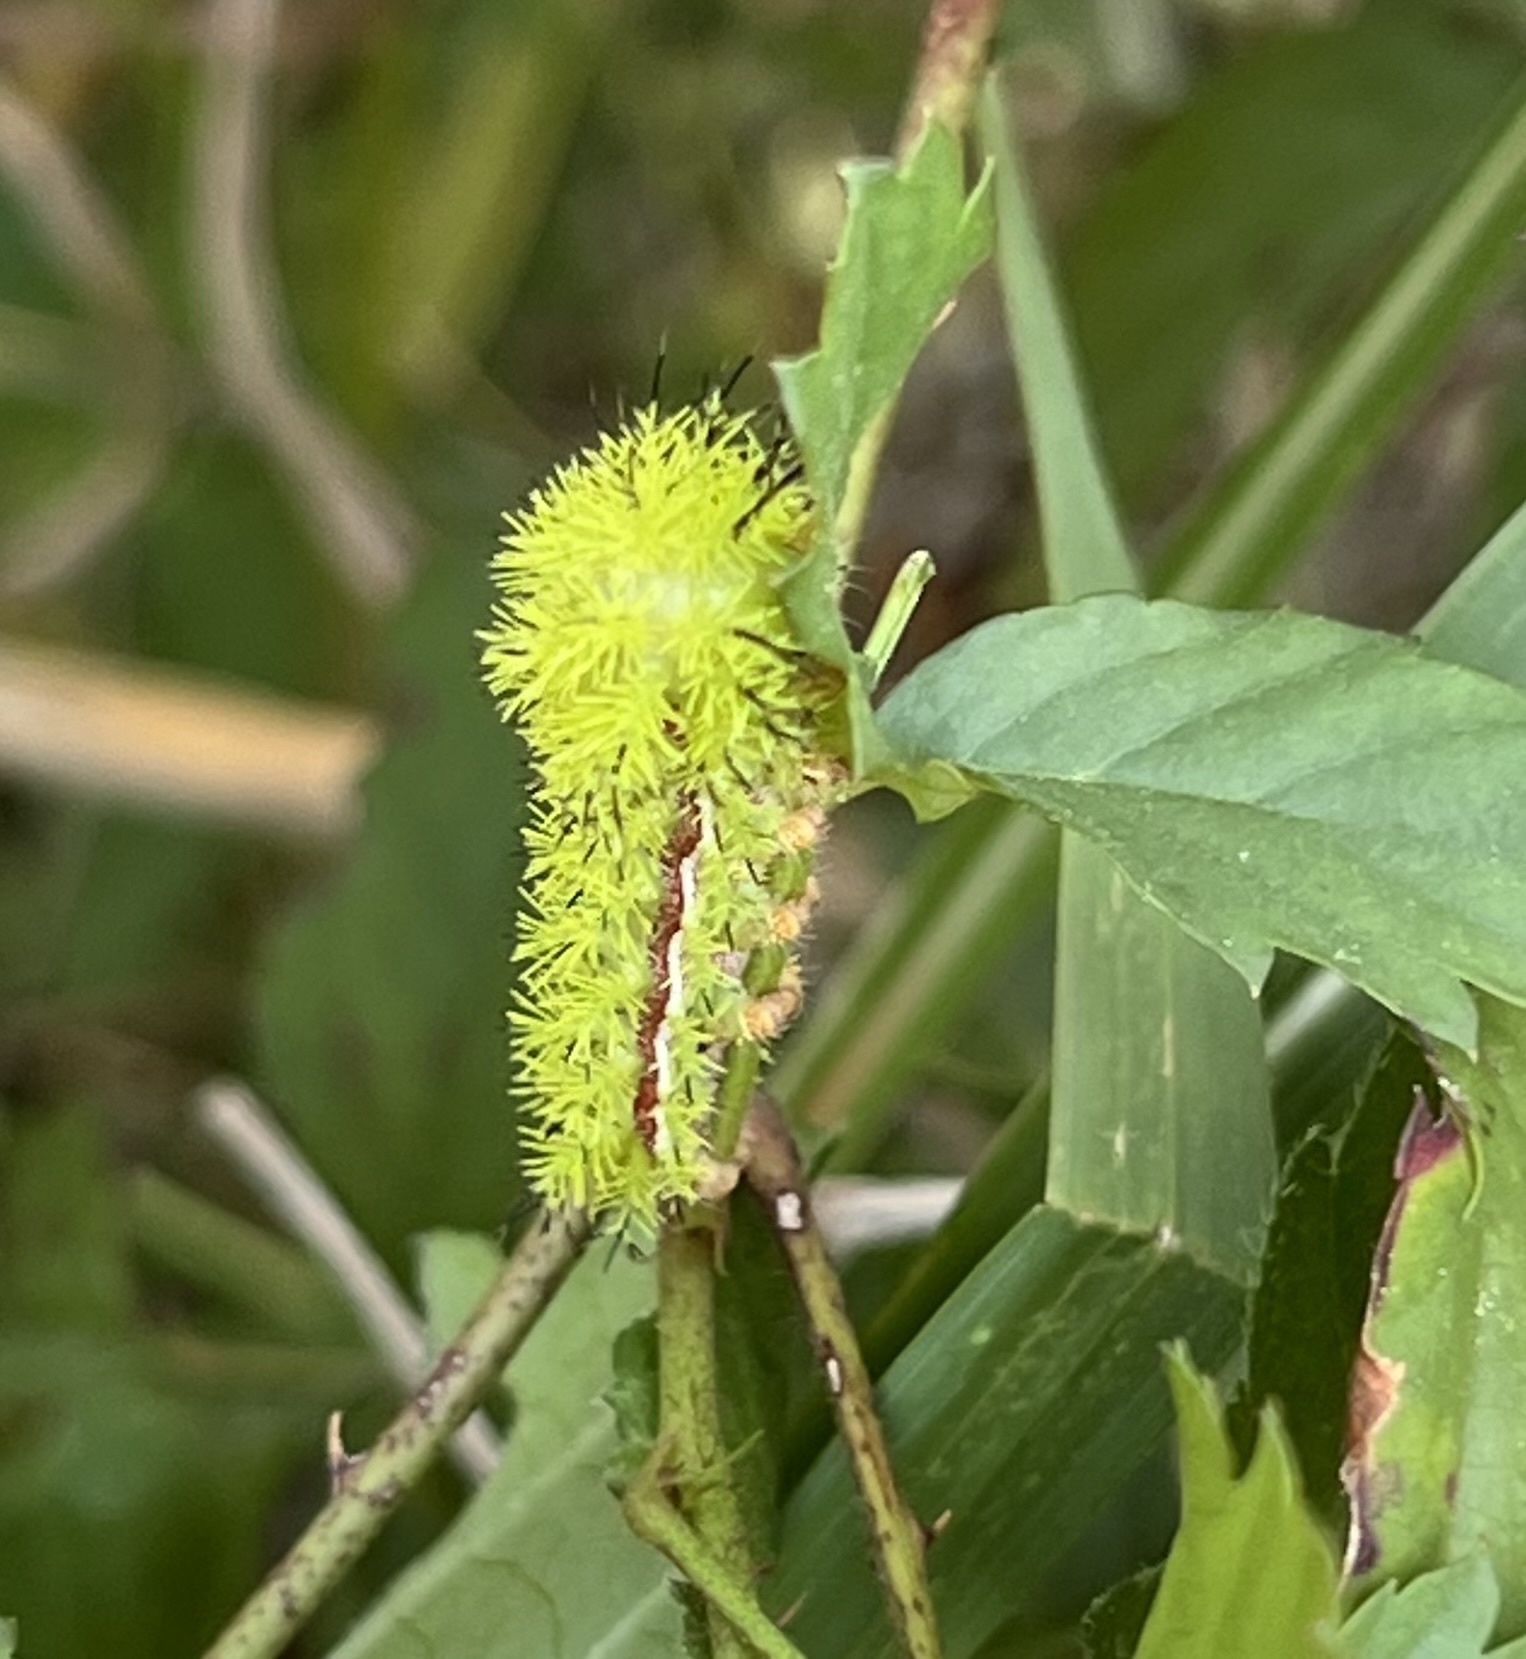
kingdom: Animalia
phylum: Arthropoda
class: Insecta
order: Lepidoptera
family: Saturniidae
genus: Automeris
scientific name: Automeris io
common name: Io moth
